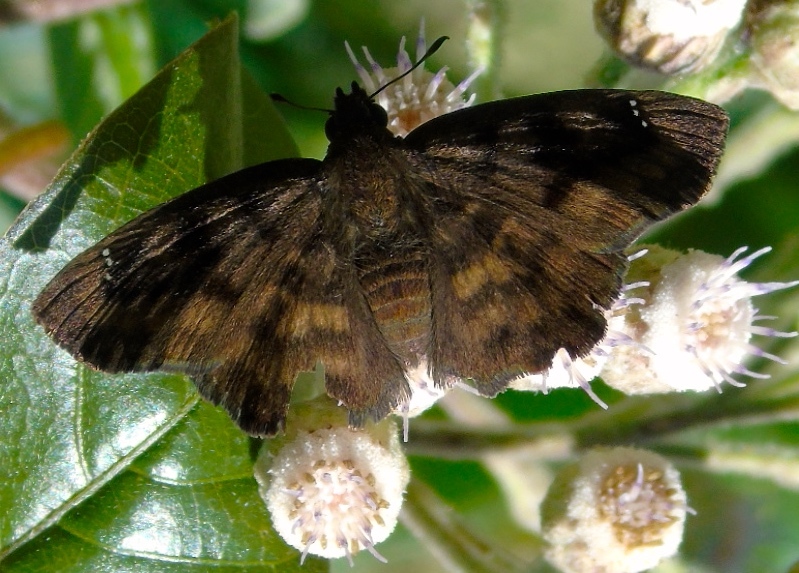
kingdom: Animalia
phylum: Arthropoda
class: Insecta
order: Lepidoptera
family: Hesperiidae
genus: Nisoniades
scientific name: Nisoniades
